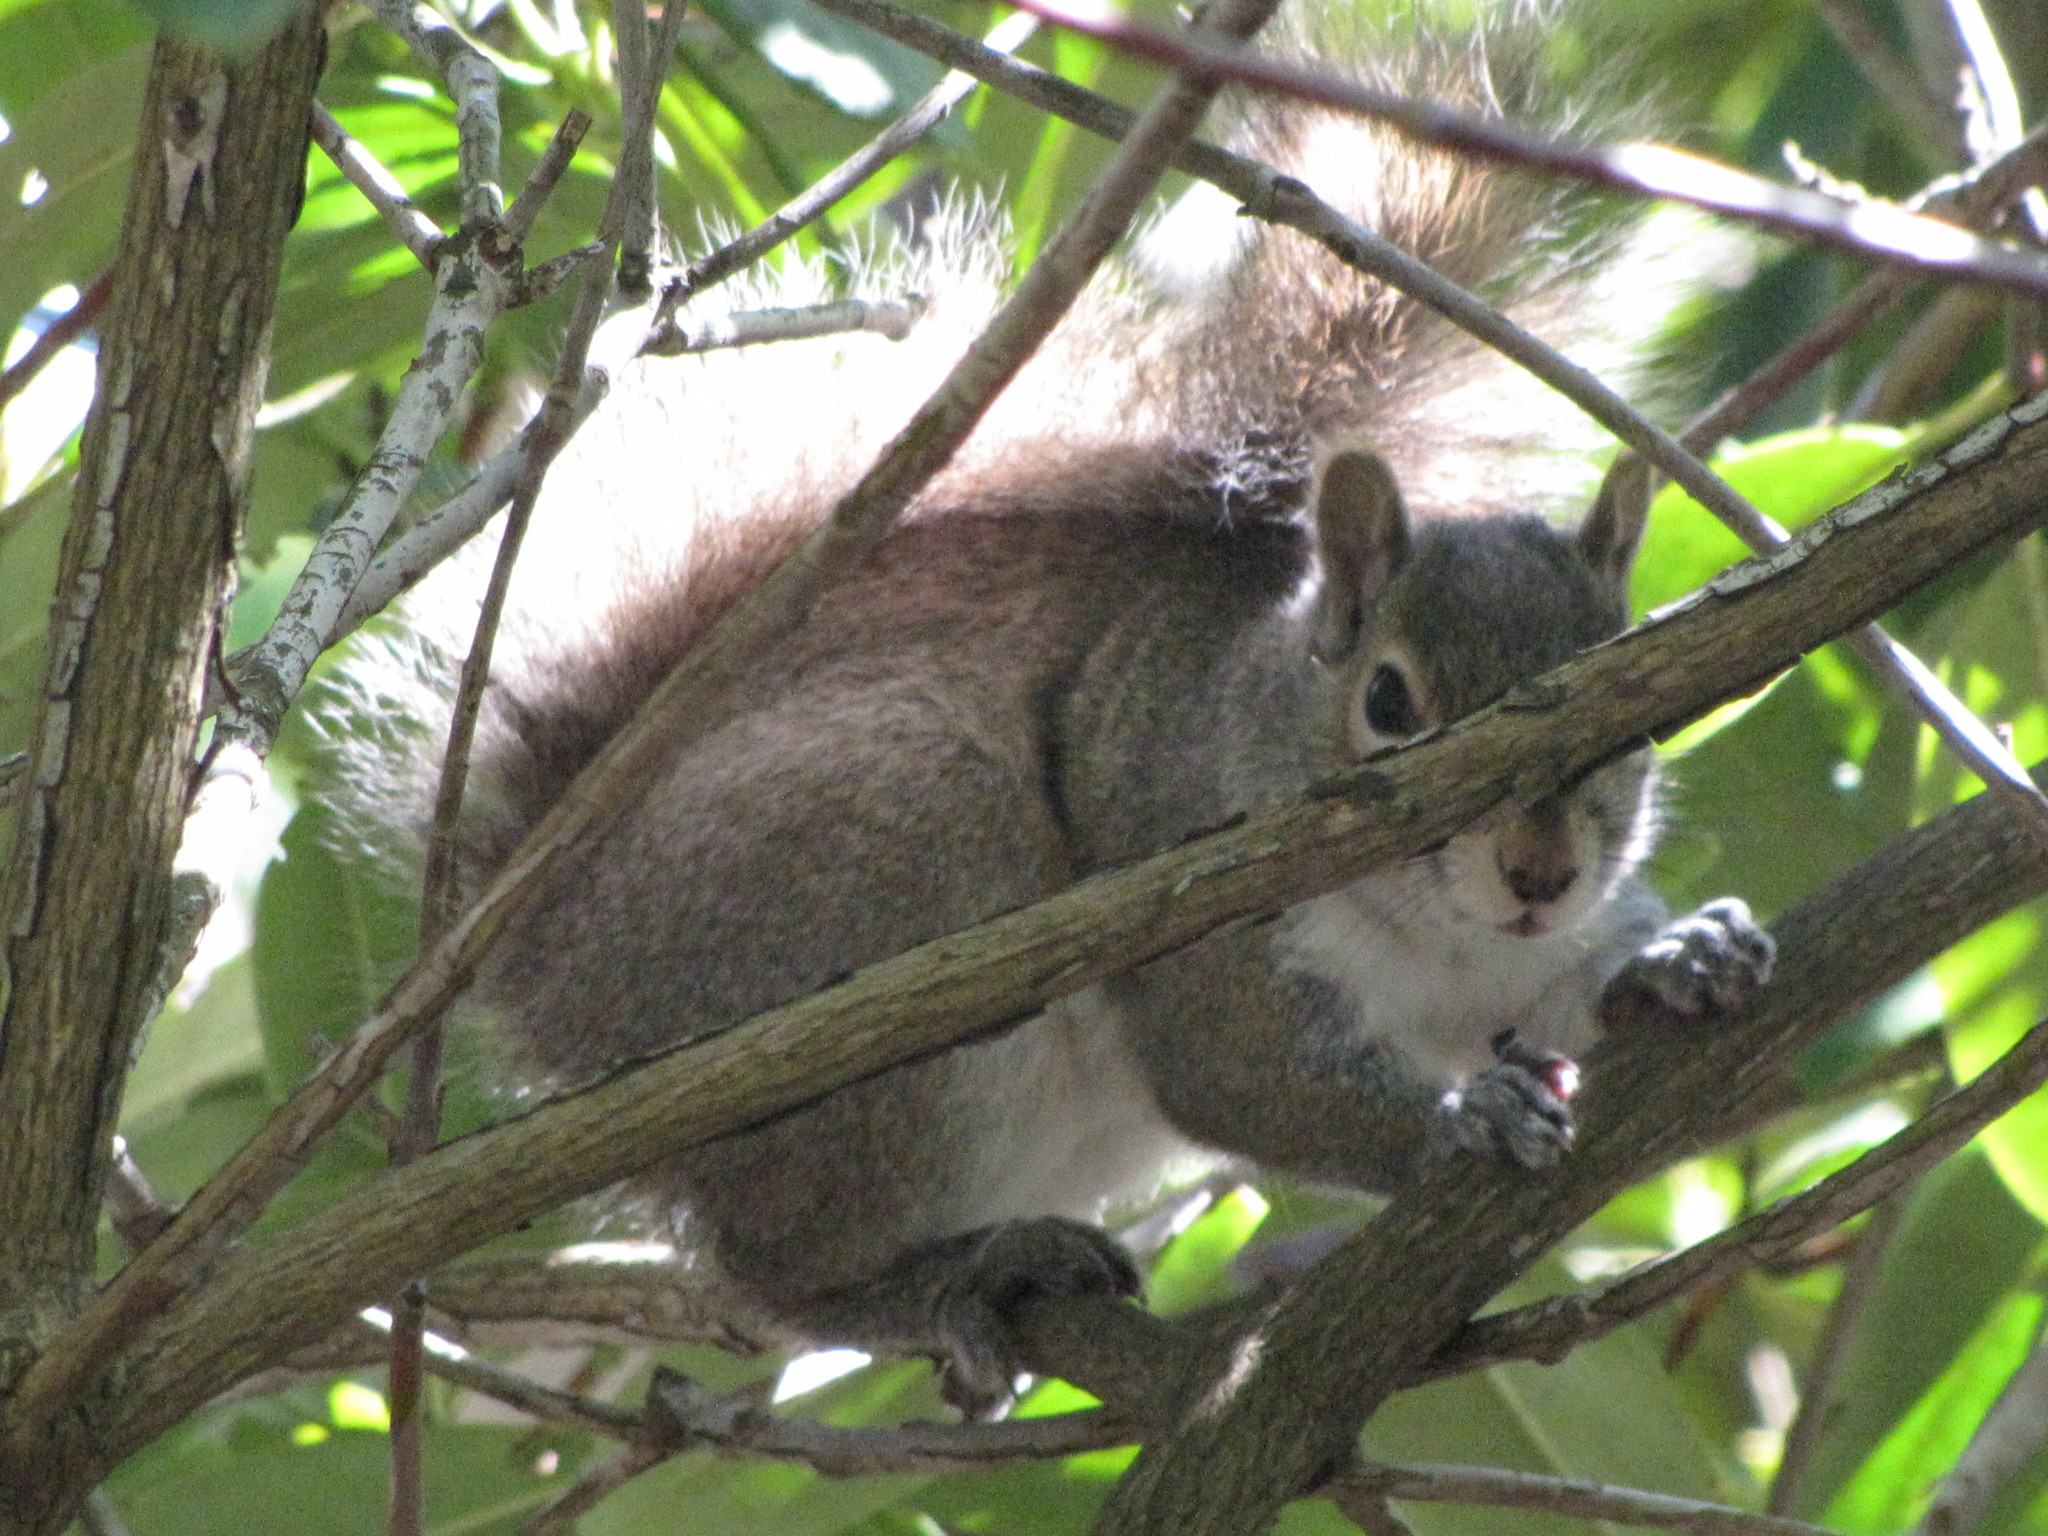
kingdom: Animalia
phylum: Chordata
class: Mammalia
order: Rodentia
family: Sciuridae
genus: Sciurus
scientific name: Sciurus carolinensis
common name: Eastern gray squirrel
